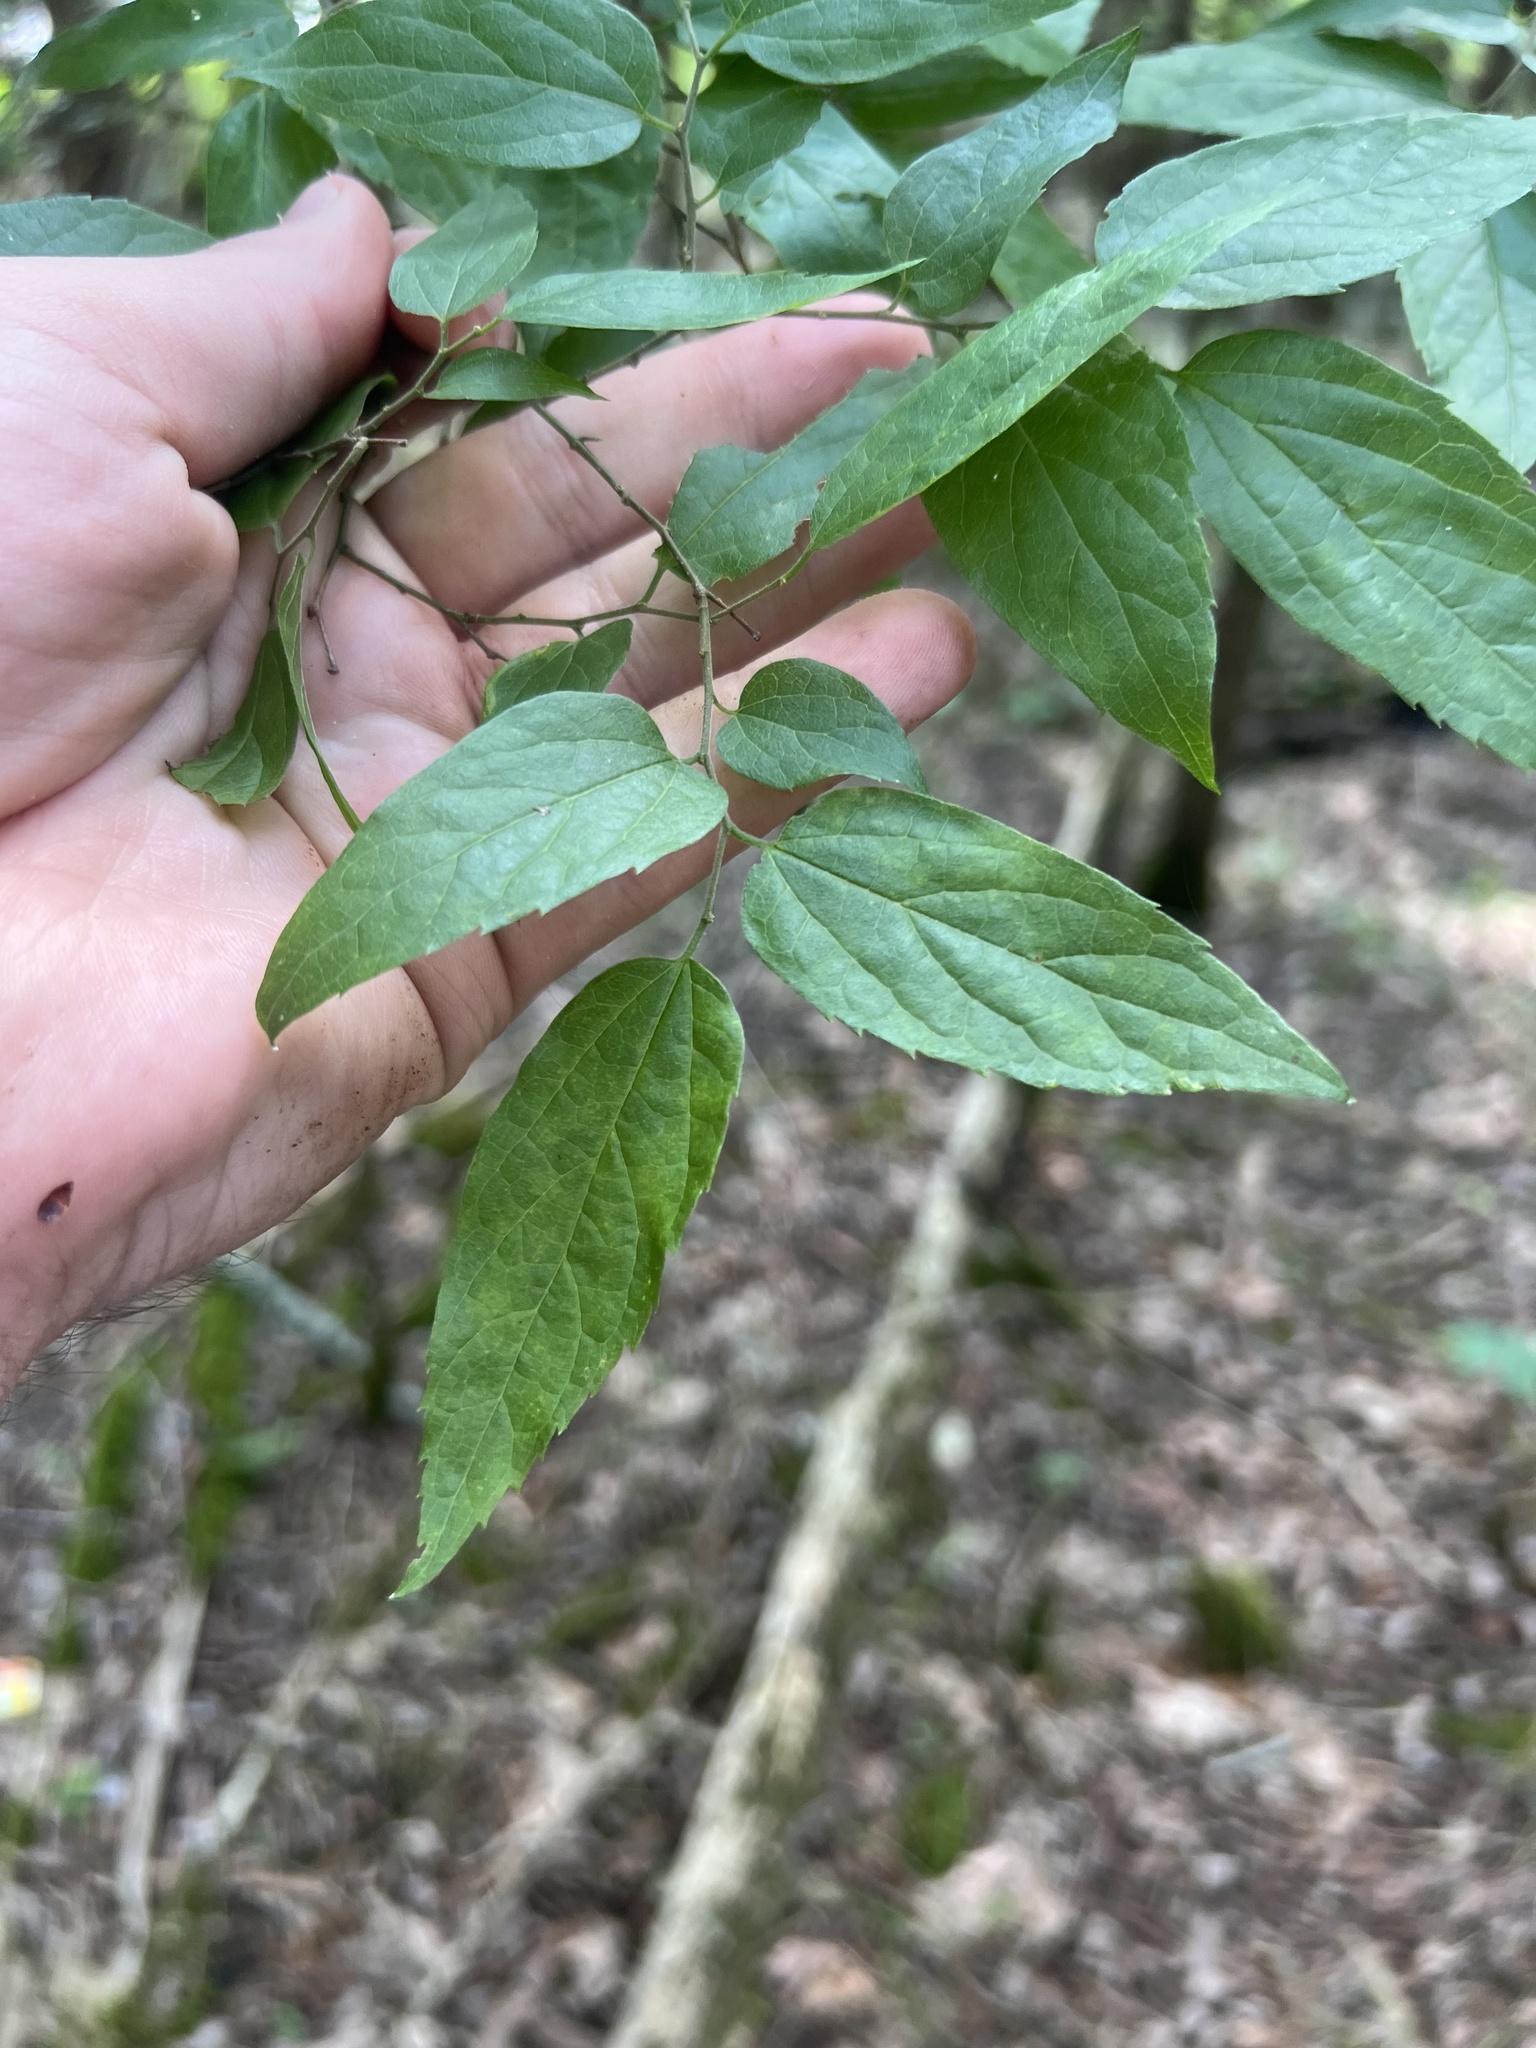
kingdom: Plantae
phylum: Tracheophyta
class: Magnoliopsida
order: Rosales
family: Cannabaceae
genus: Celtis
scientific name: Celtis laevigata
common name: Sugarberry
